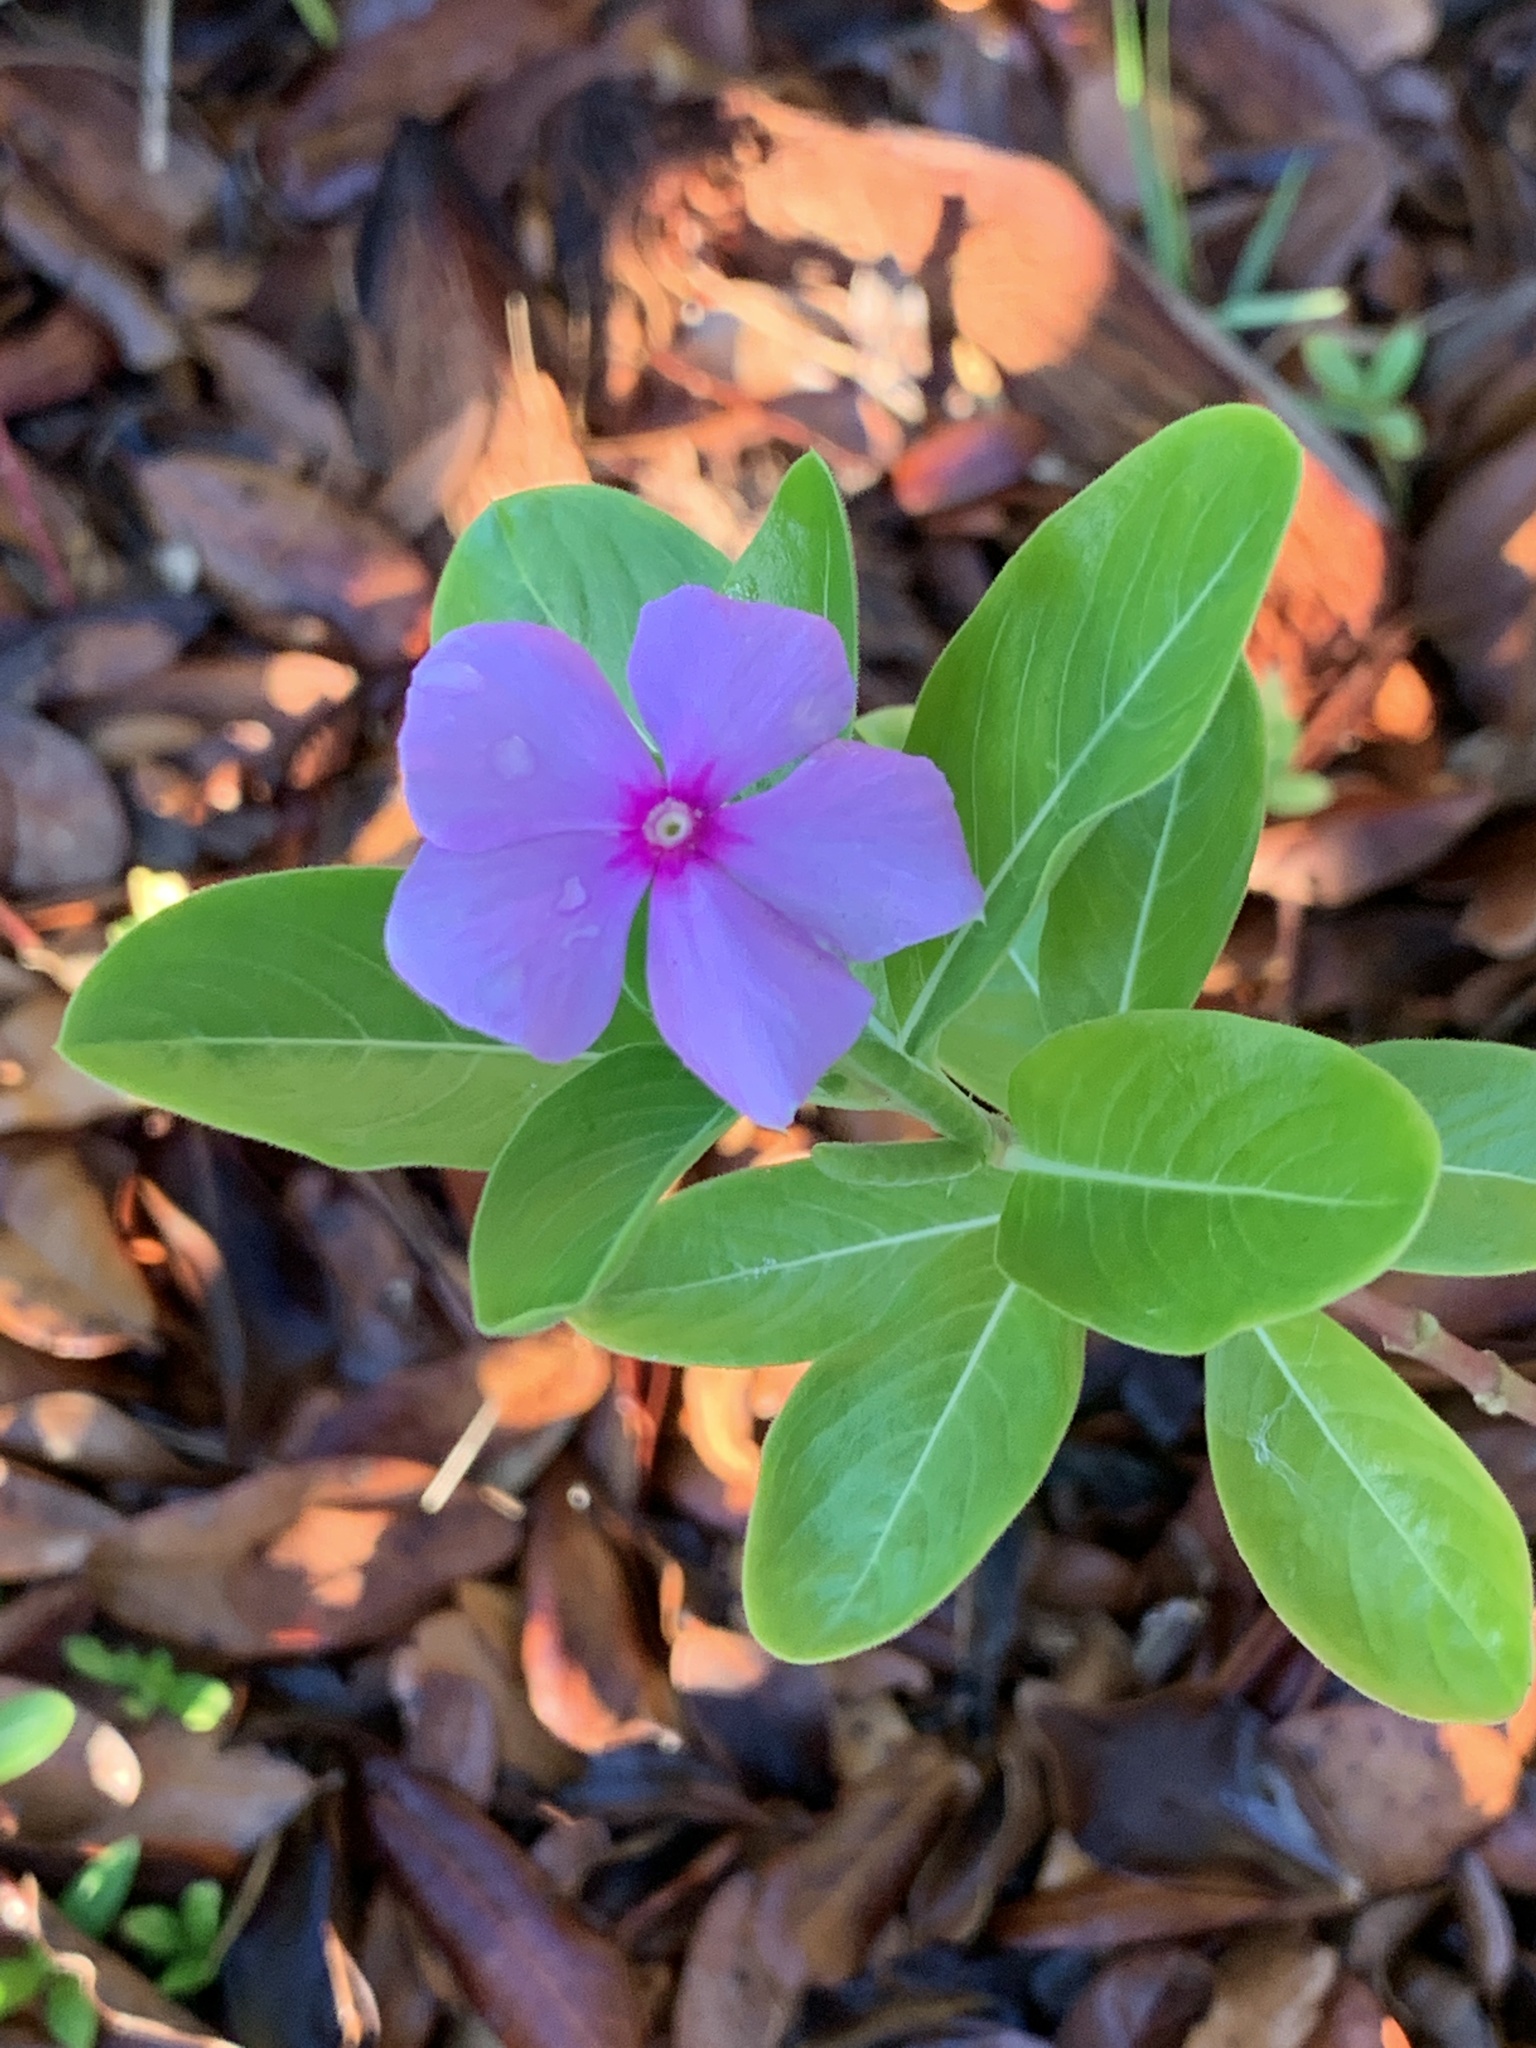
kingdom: Plantae
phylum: Tracheophyta
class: Magnoliopsida
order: Gentianales
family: Apocynaceae
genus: Catharanthus
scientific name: Catharanthus roseus
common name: Madagascar periwinkle
